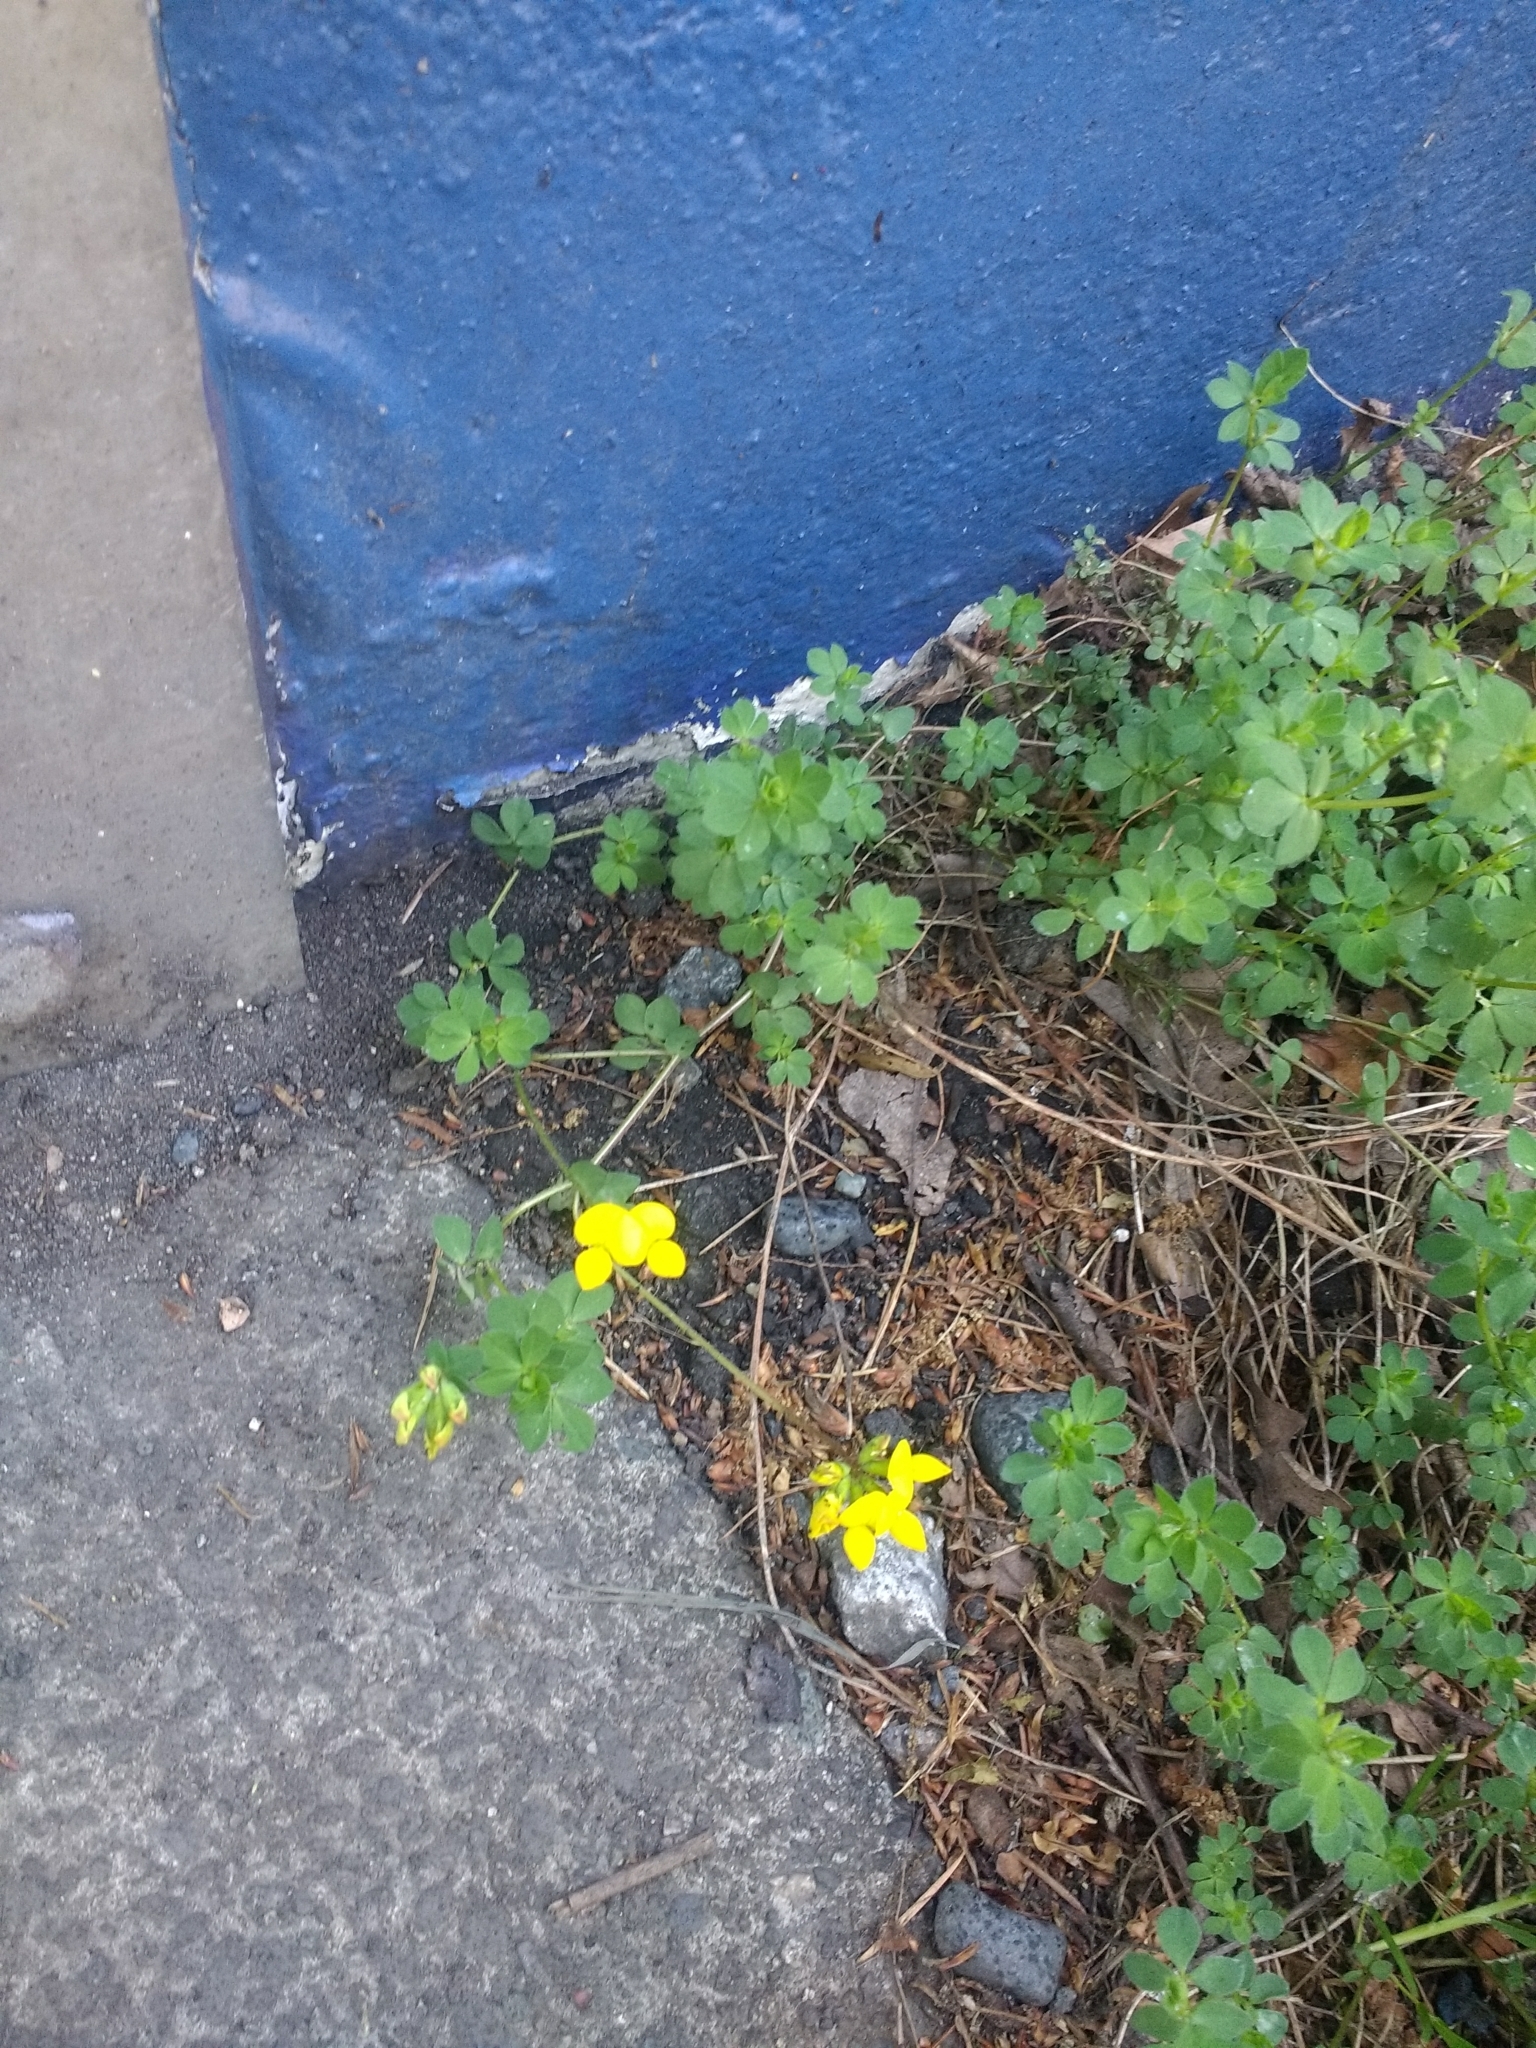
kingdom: Plantae
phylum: Tracheophyta
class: Magnoliopsida
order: Fabales
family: Fabaceae
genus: Lotus
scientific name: Lotus corniculatus
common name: Common bird's-foot-trefoil
